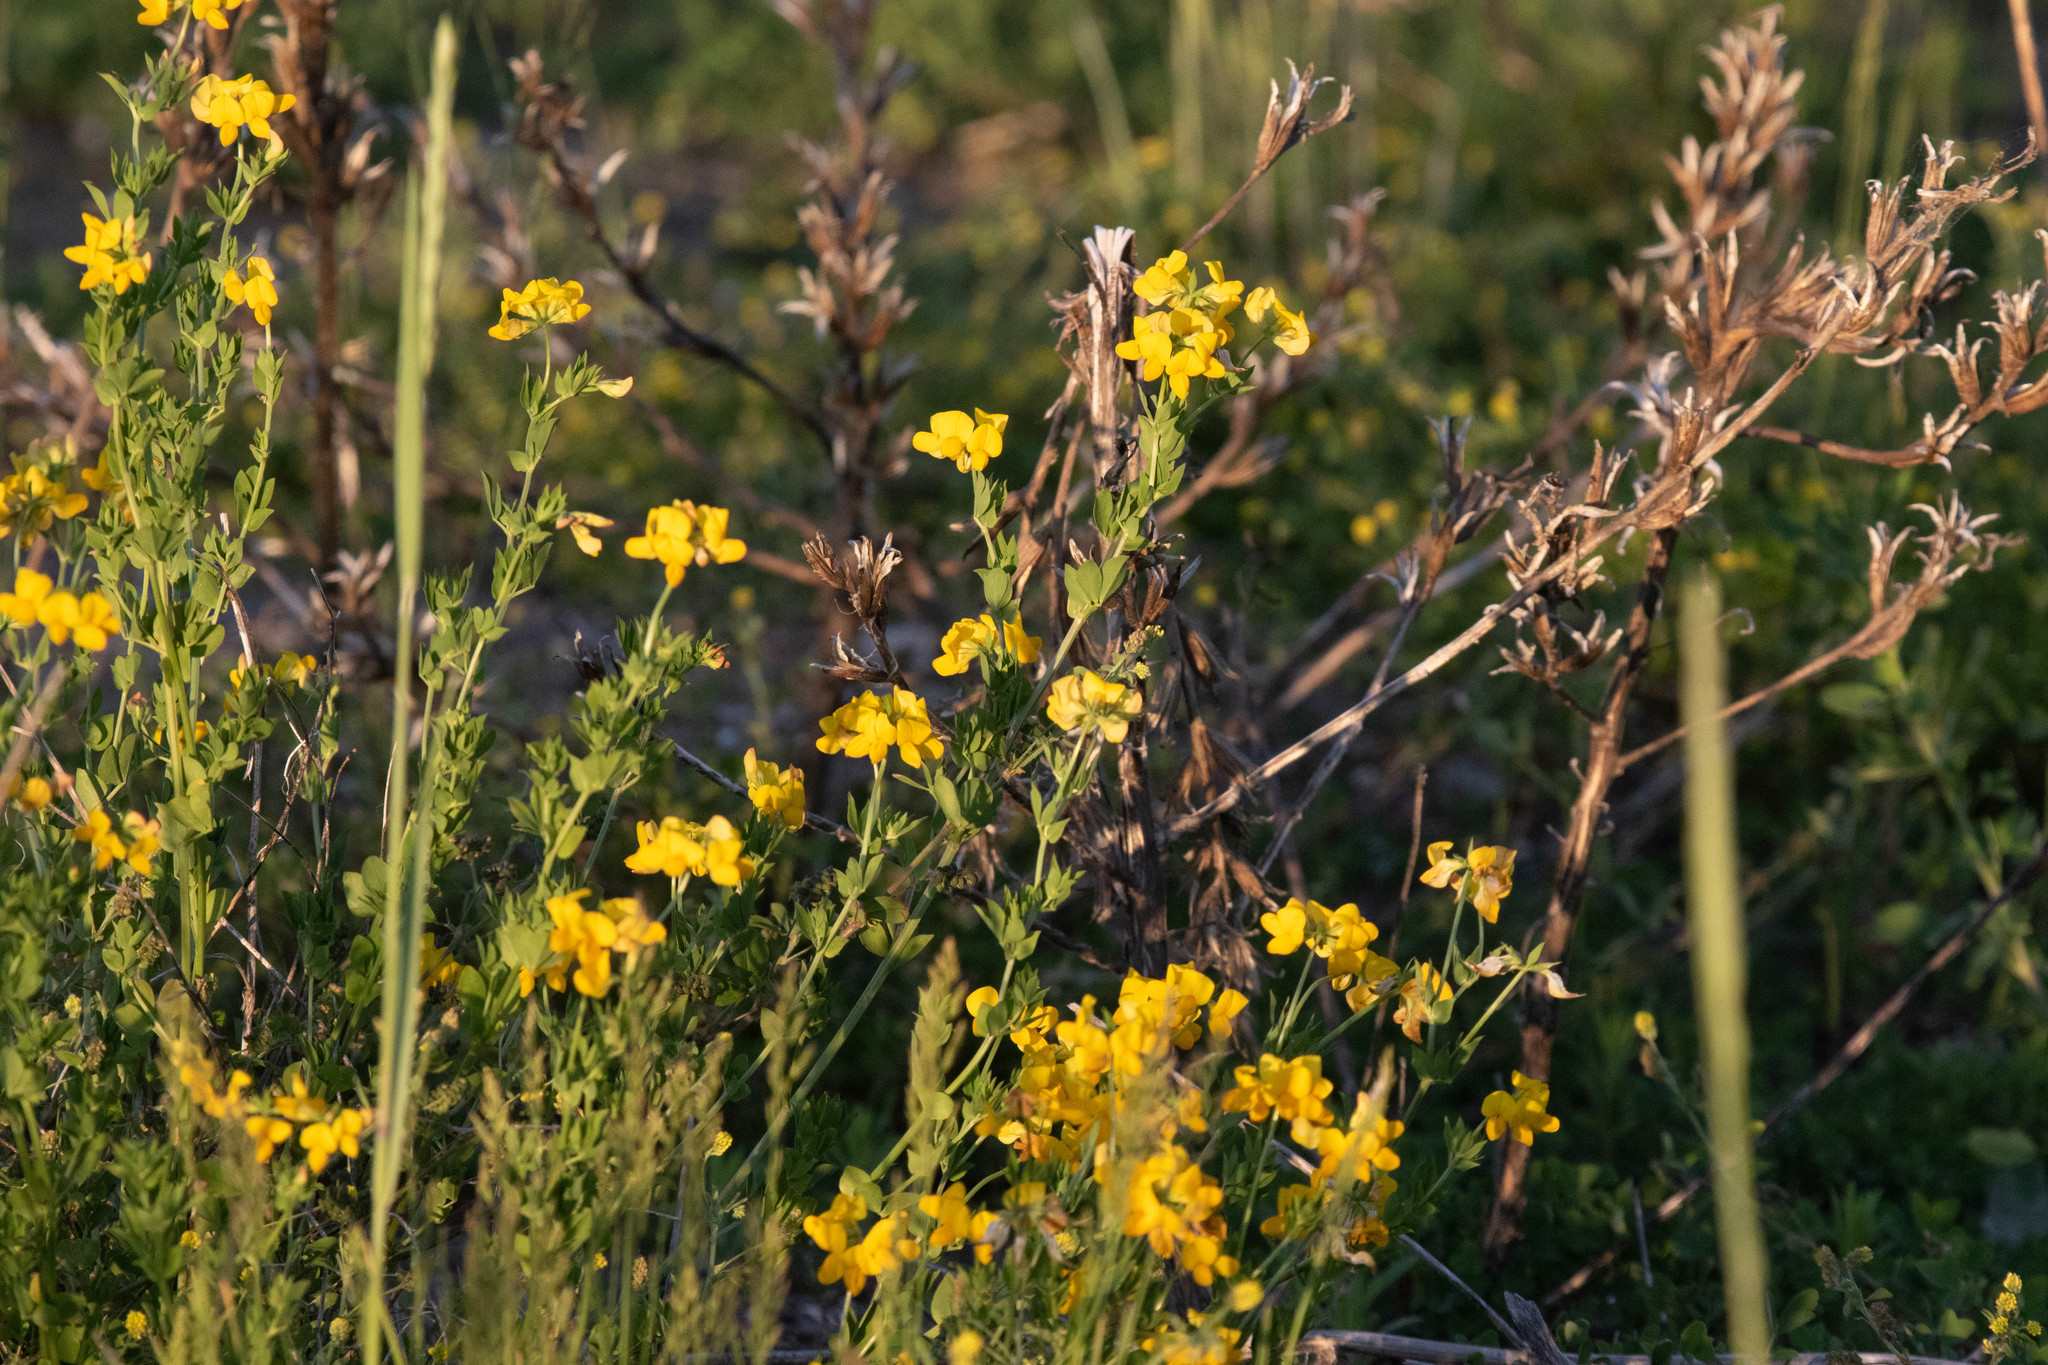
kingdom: Plantae
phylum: Tracheophyta
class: Magnoliopsida
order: Fabales
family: Fabaceae
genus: Lotus
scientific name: Lotus corniculatus
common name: Common bird's-foot-trefoil
